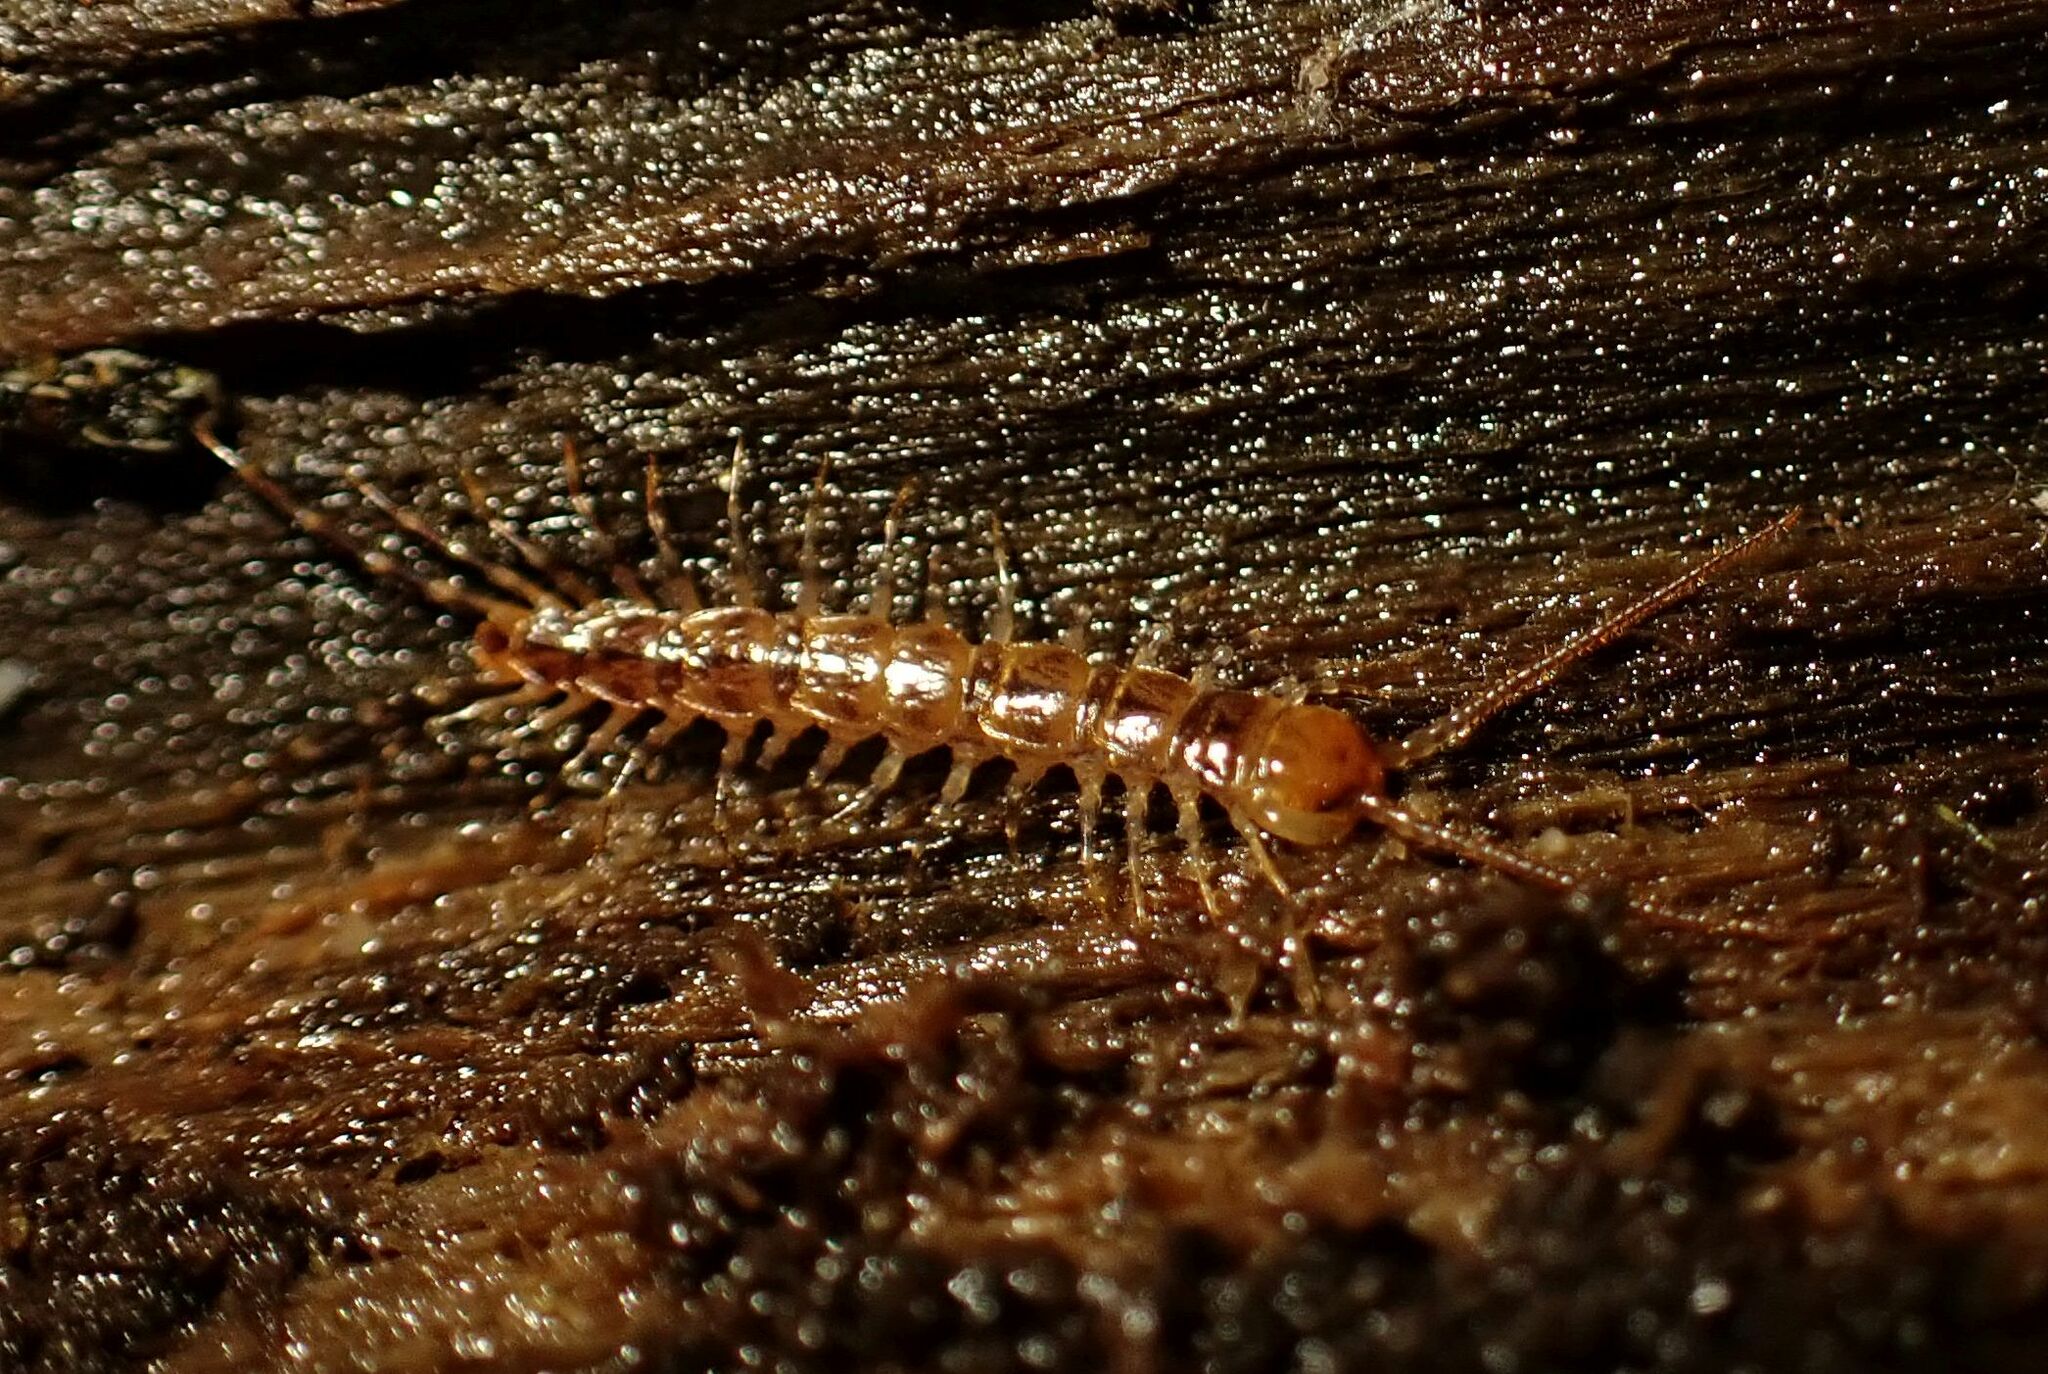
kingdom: Animalia
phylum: Arthropoda
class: Chilopoda
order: Lithobiomorpha
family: Lithobiidae
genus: Lithobius
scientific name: Lithobius variegatus
